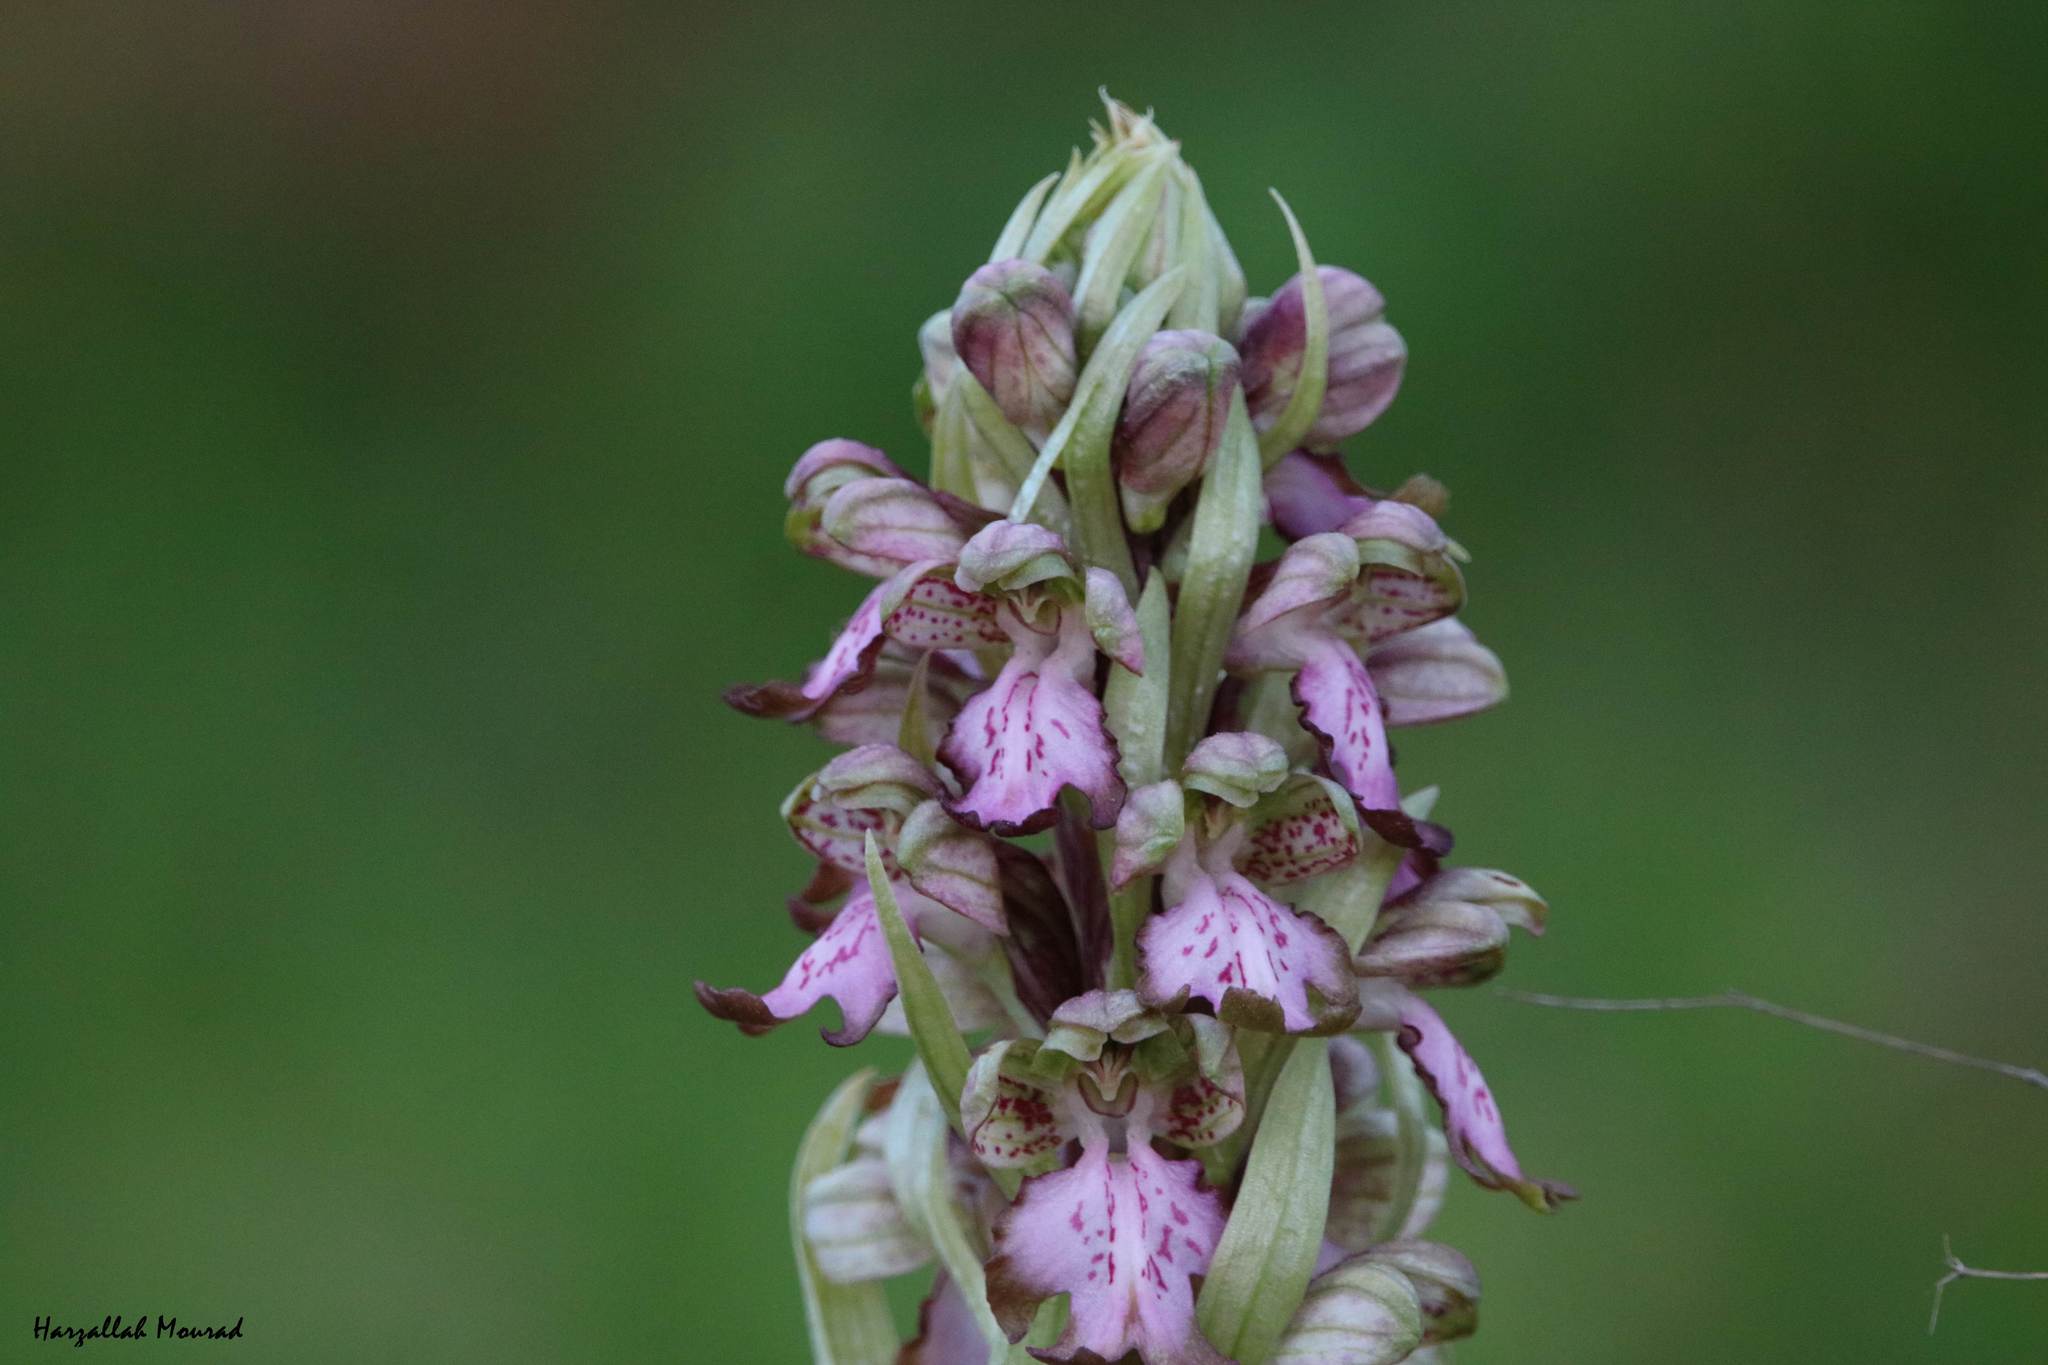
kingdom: Plantae
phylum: Tracheophyta
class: Liliopsida
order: Asparagales
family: Orchidaceae
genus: Himantoglossum
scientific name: Himantoglossum robertianum
